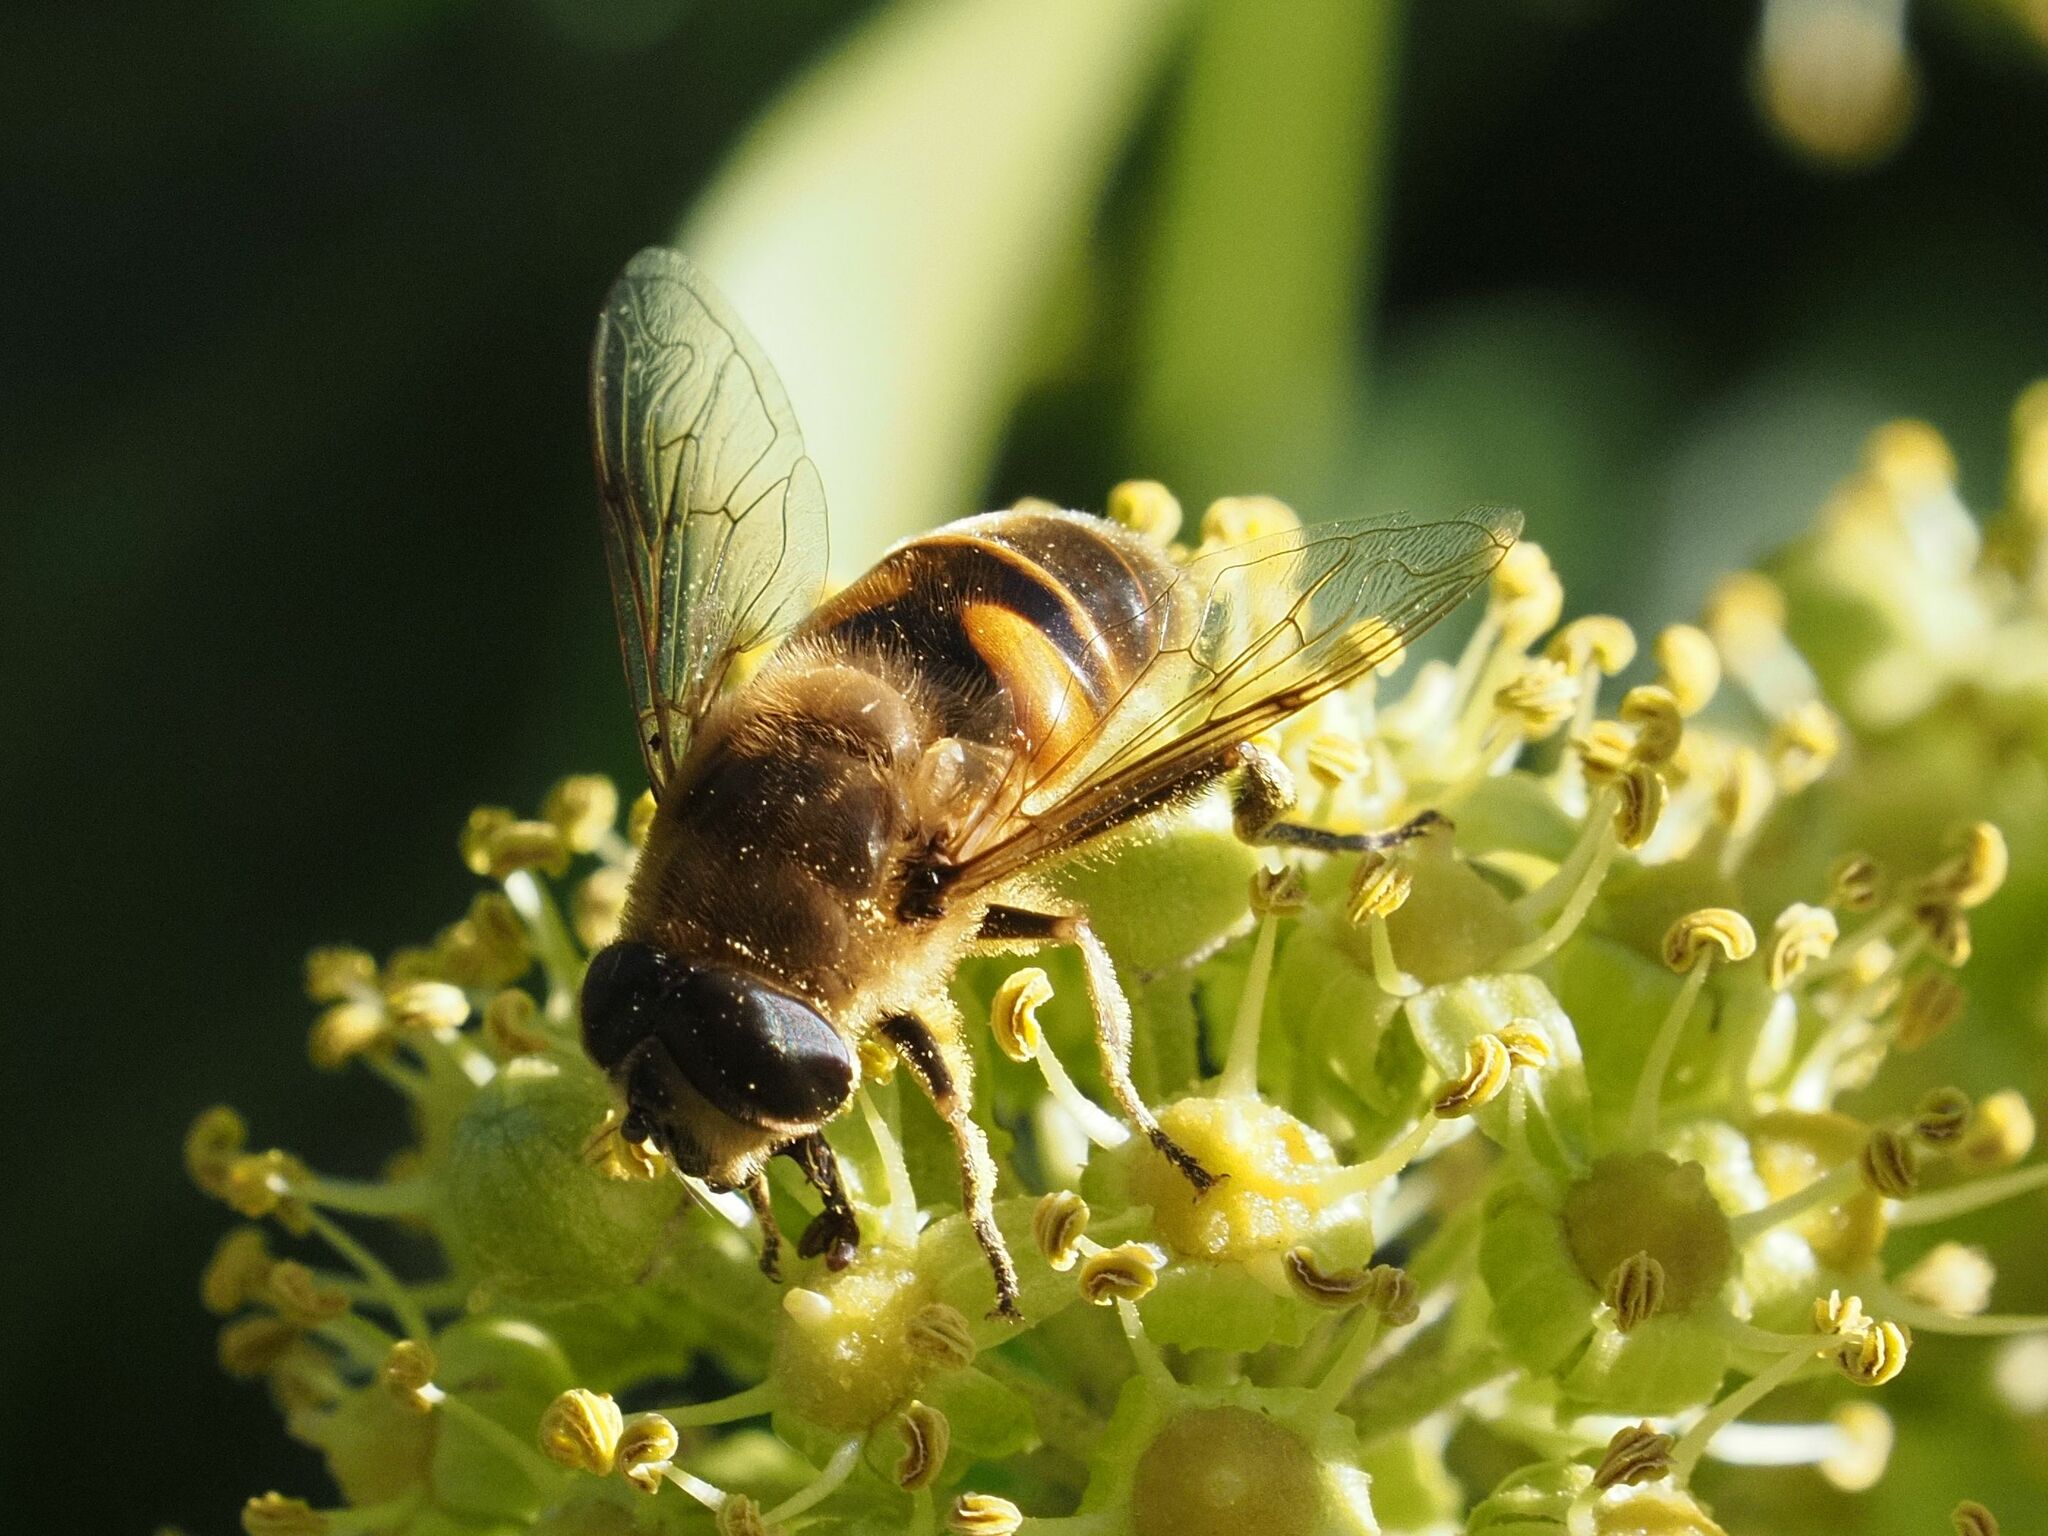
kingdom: Animalia
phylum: Arthropoda
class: Insecta
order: Diptera
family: Syrphidae
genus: Eristalis
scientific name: Eristalis tenax
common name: Drone fly
